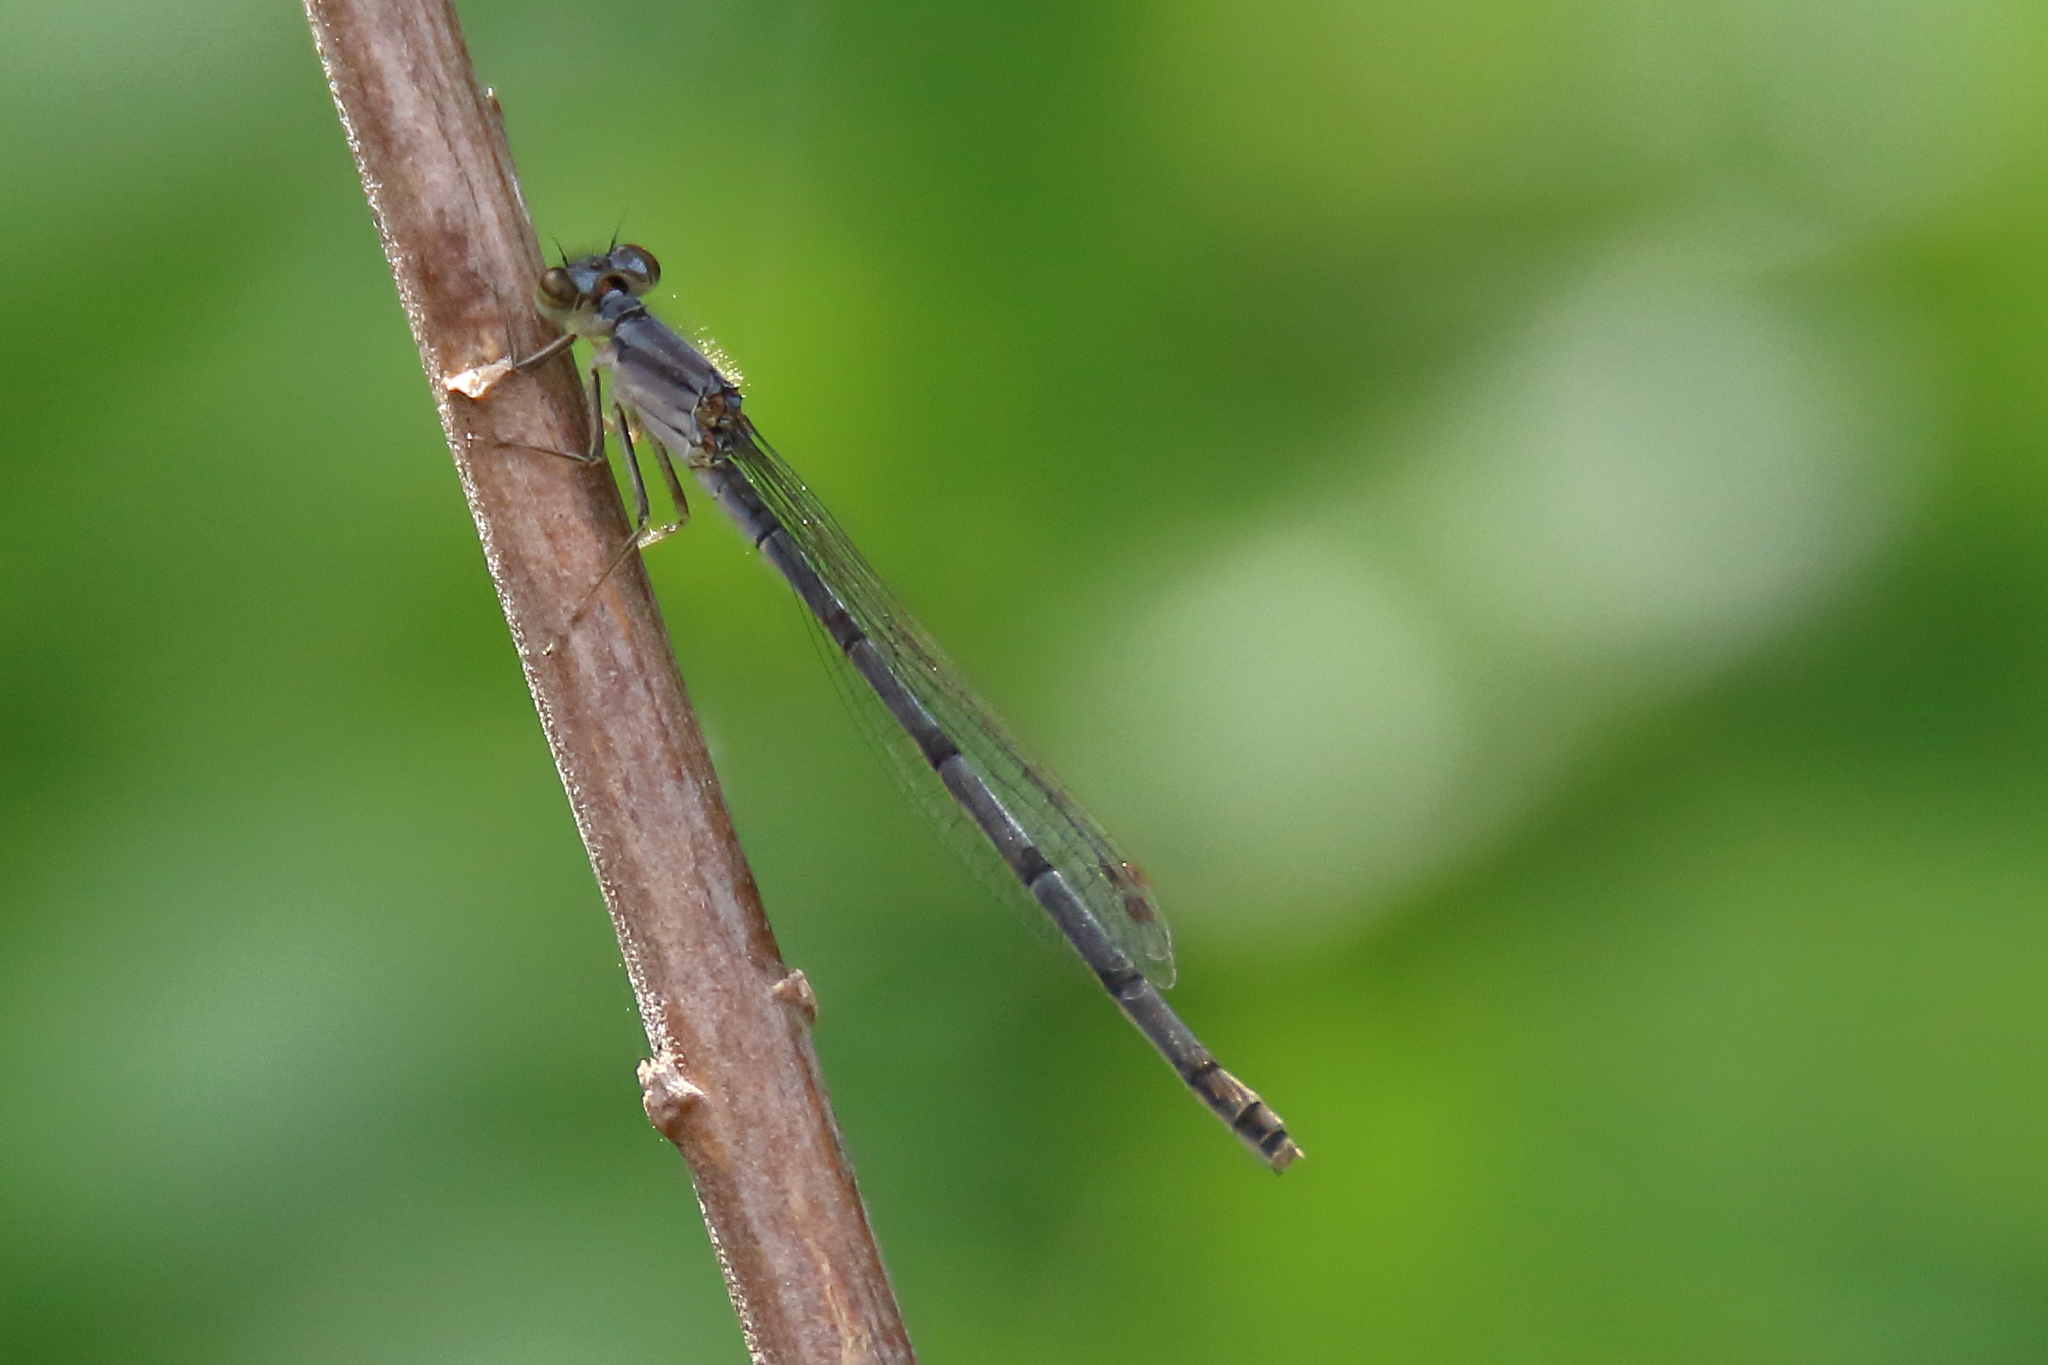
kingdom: Animalia
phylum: Arthropoda
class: Insecta
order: Odonata
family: Coenagrionidae
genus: Ischnura
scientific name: Ischnura posita
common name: Fragile forktail
